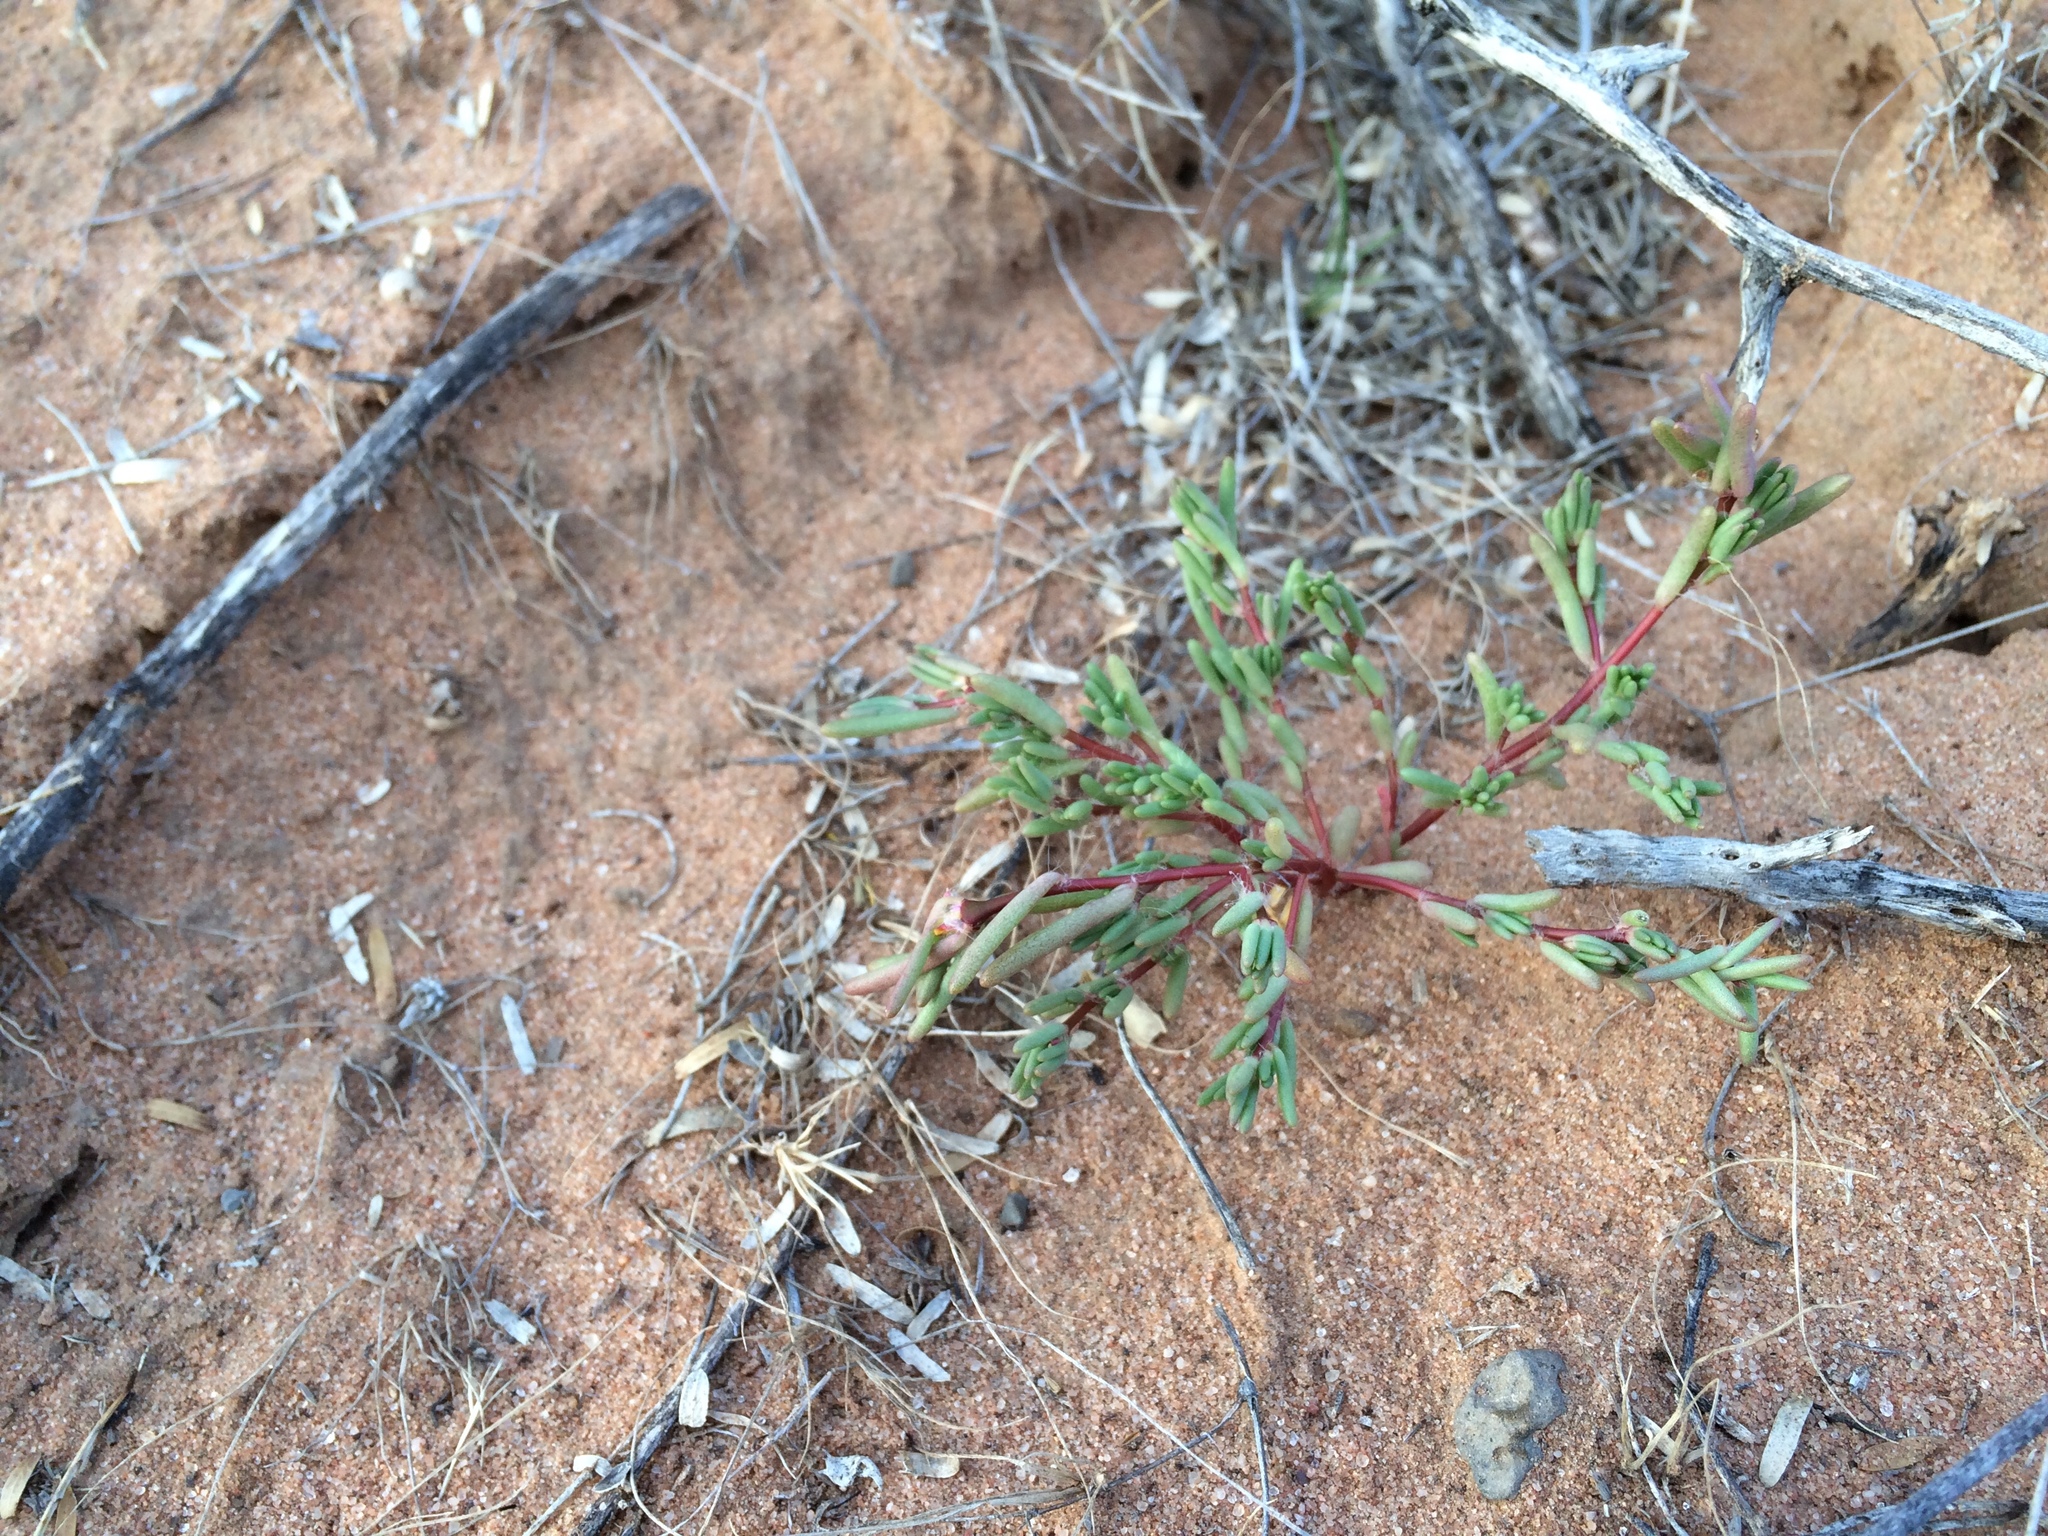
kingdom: Plantae
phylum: Tracheophyta
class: Magnoliopsida
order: Caryophyllales
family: Portulacaceae
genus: Portulaca
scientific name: Portulaca halimoides
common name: Silk cotton purslane
